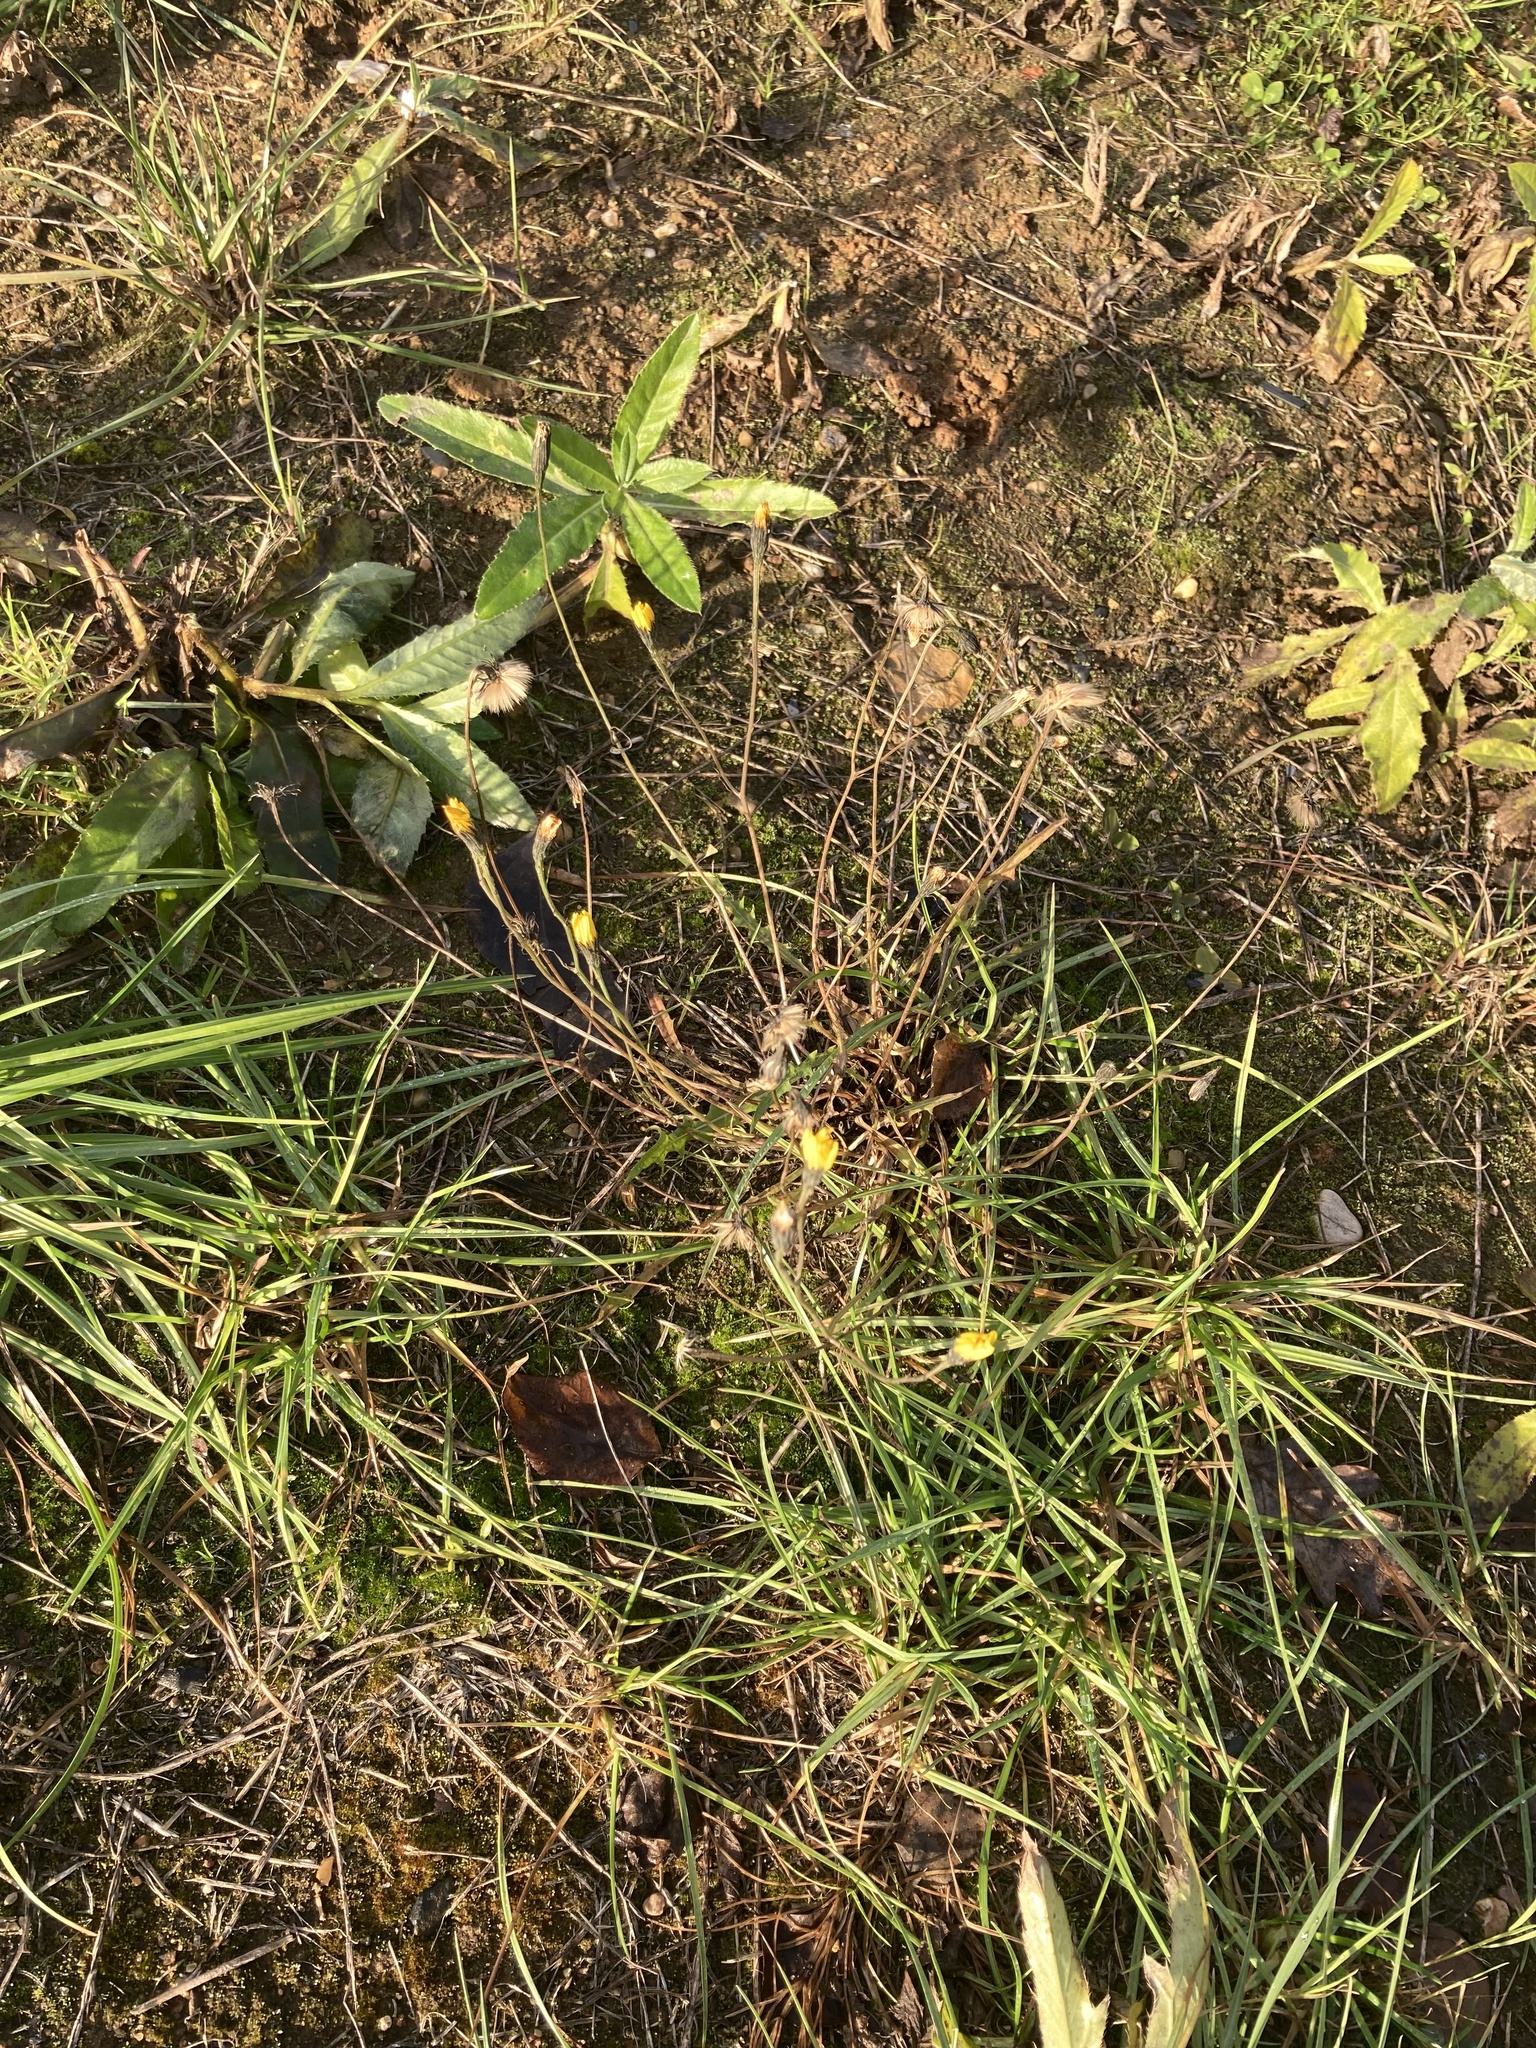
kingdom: Plantae
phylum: Tracheophyta
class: Magnoliopsida
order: Asterales
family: Asteraceae
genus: Scorzoneroides
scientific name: Scorzoneroides autumnalis
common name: Autumn hawkbit
